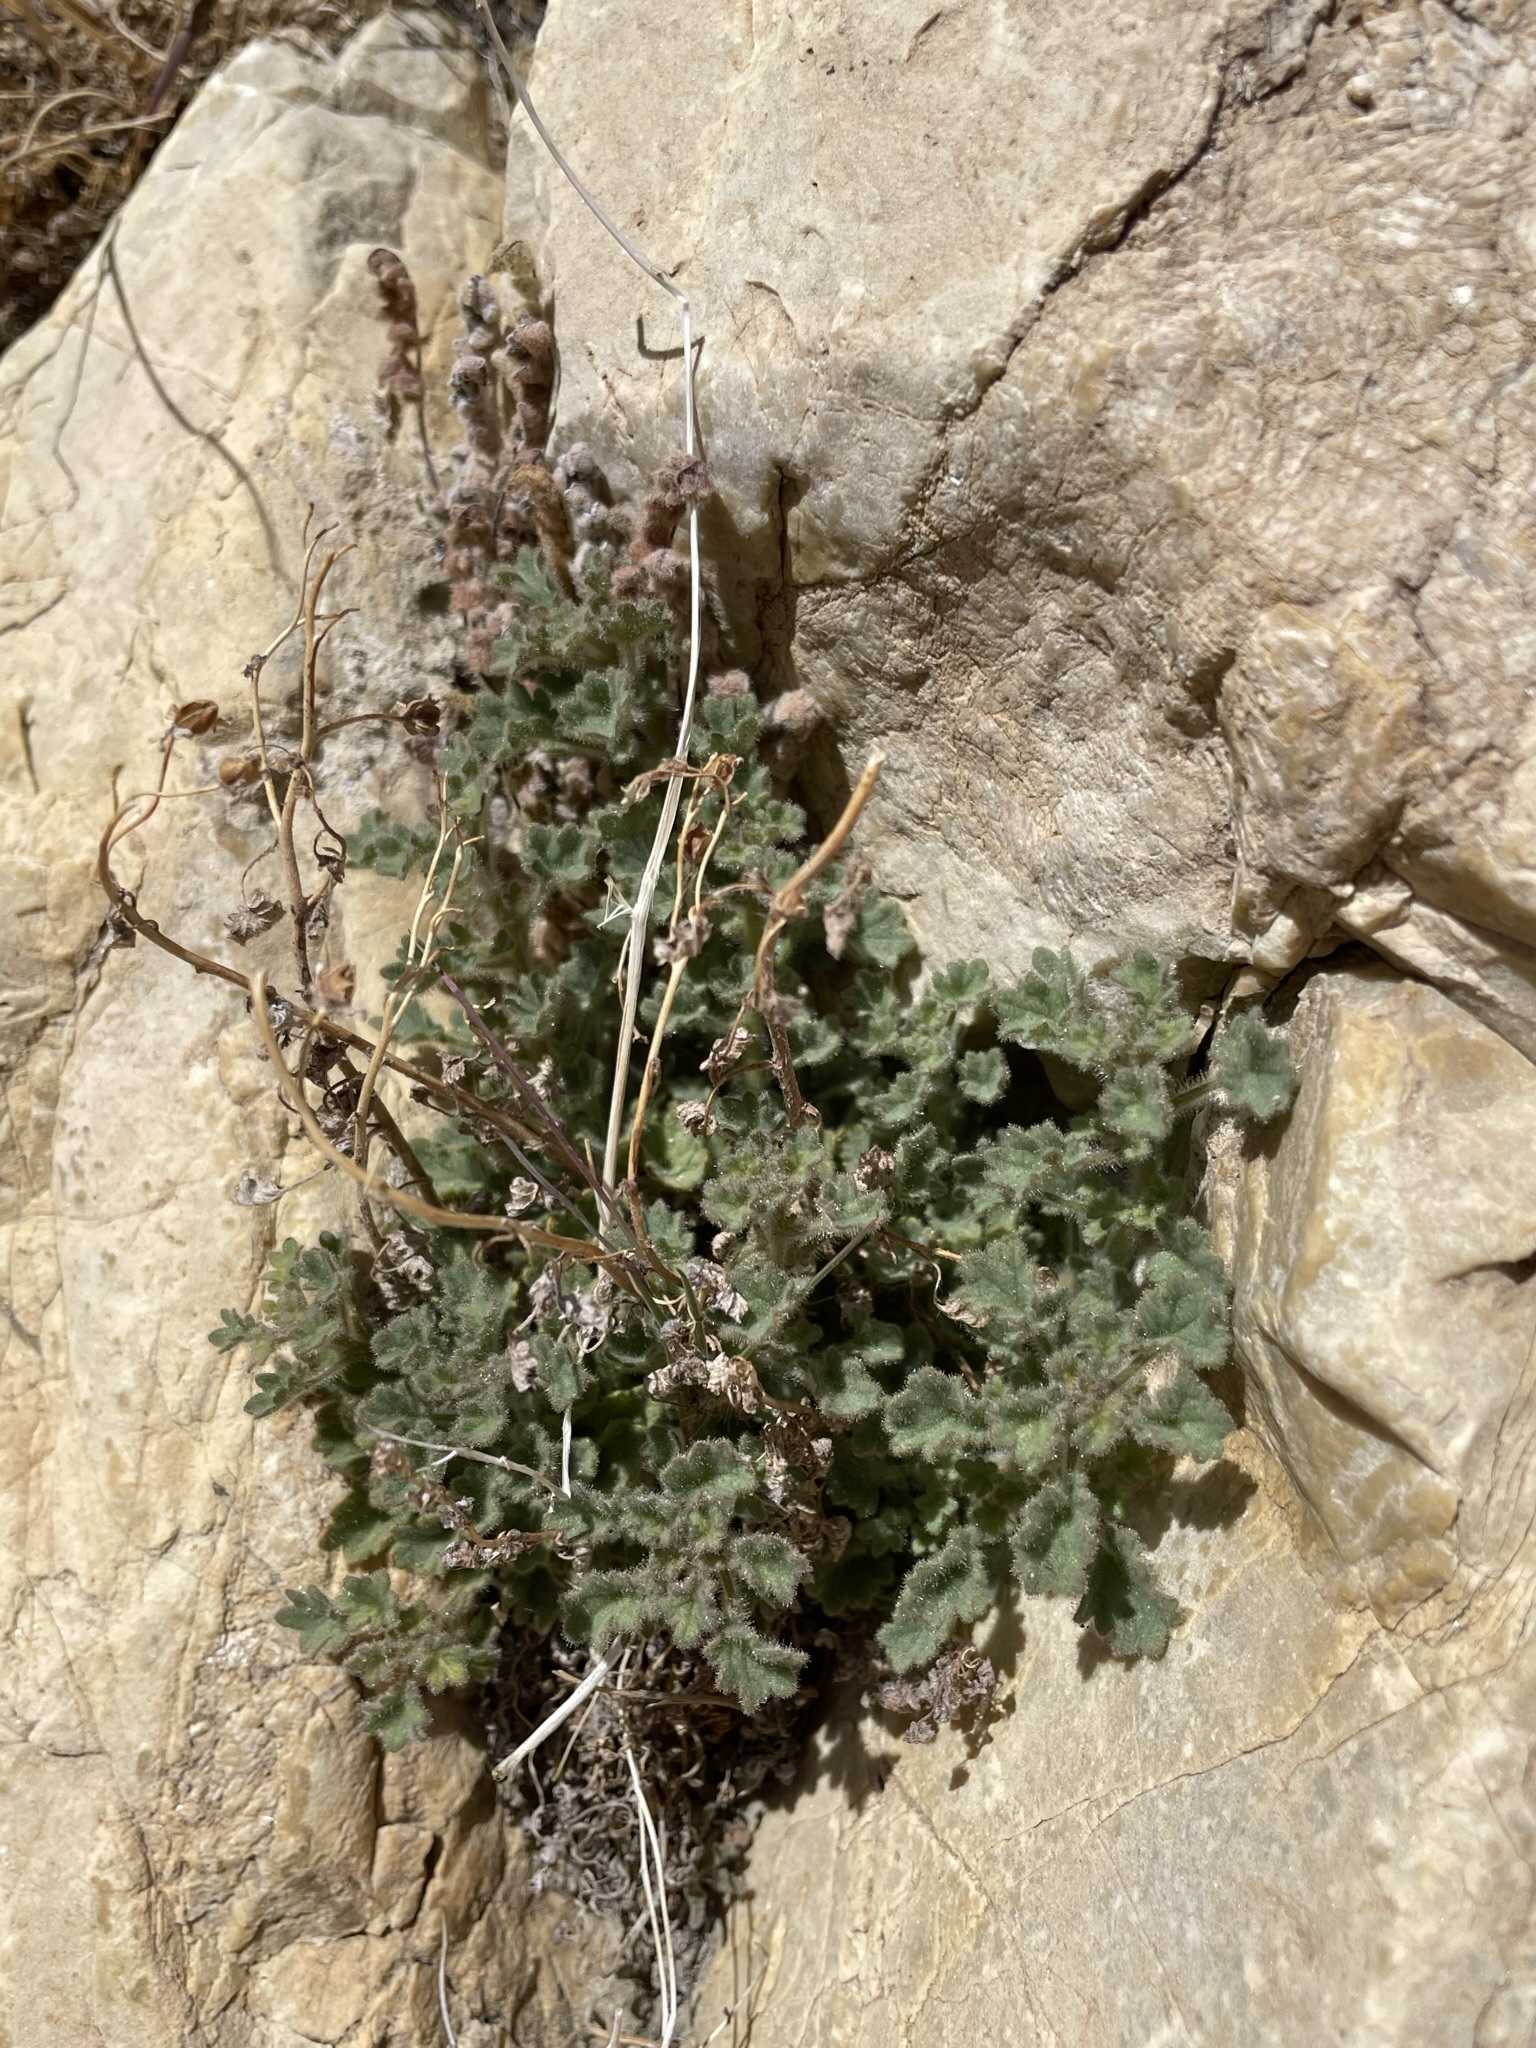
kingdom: Plantae
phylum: Tracheophyta
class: Magnoliopsida
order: Boraginales
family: Hydrophyllaceae
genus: Phacelia
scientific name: Phacelia perityloides
